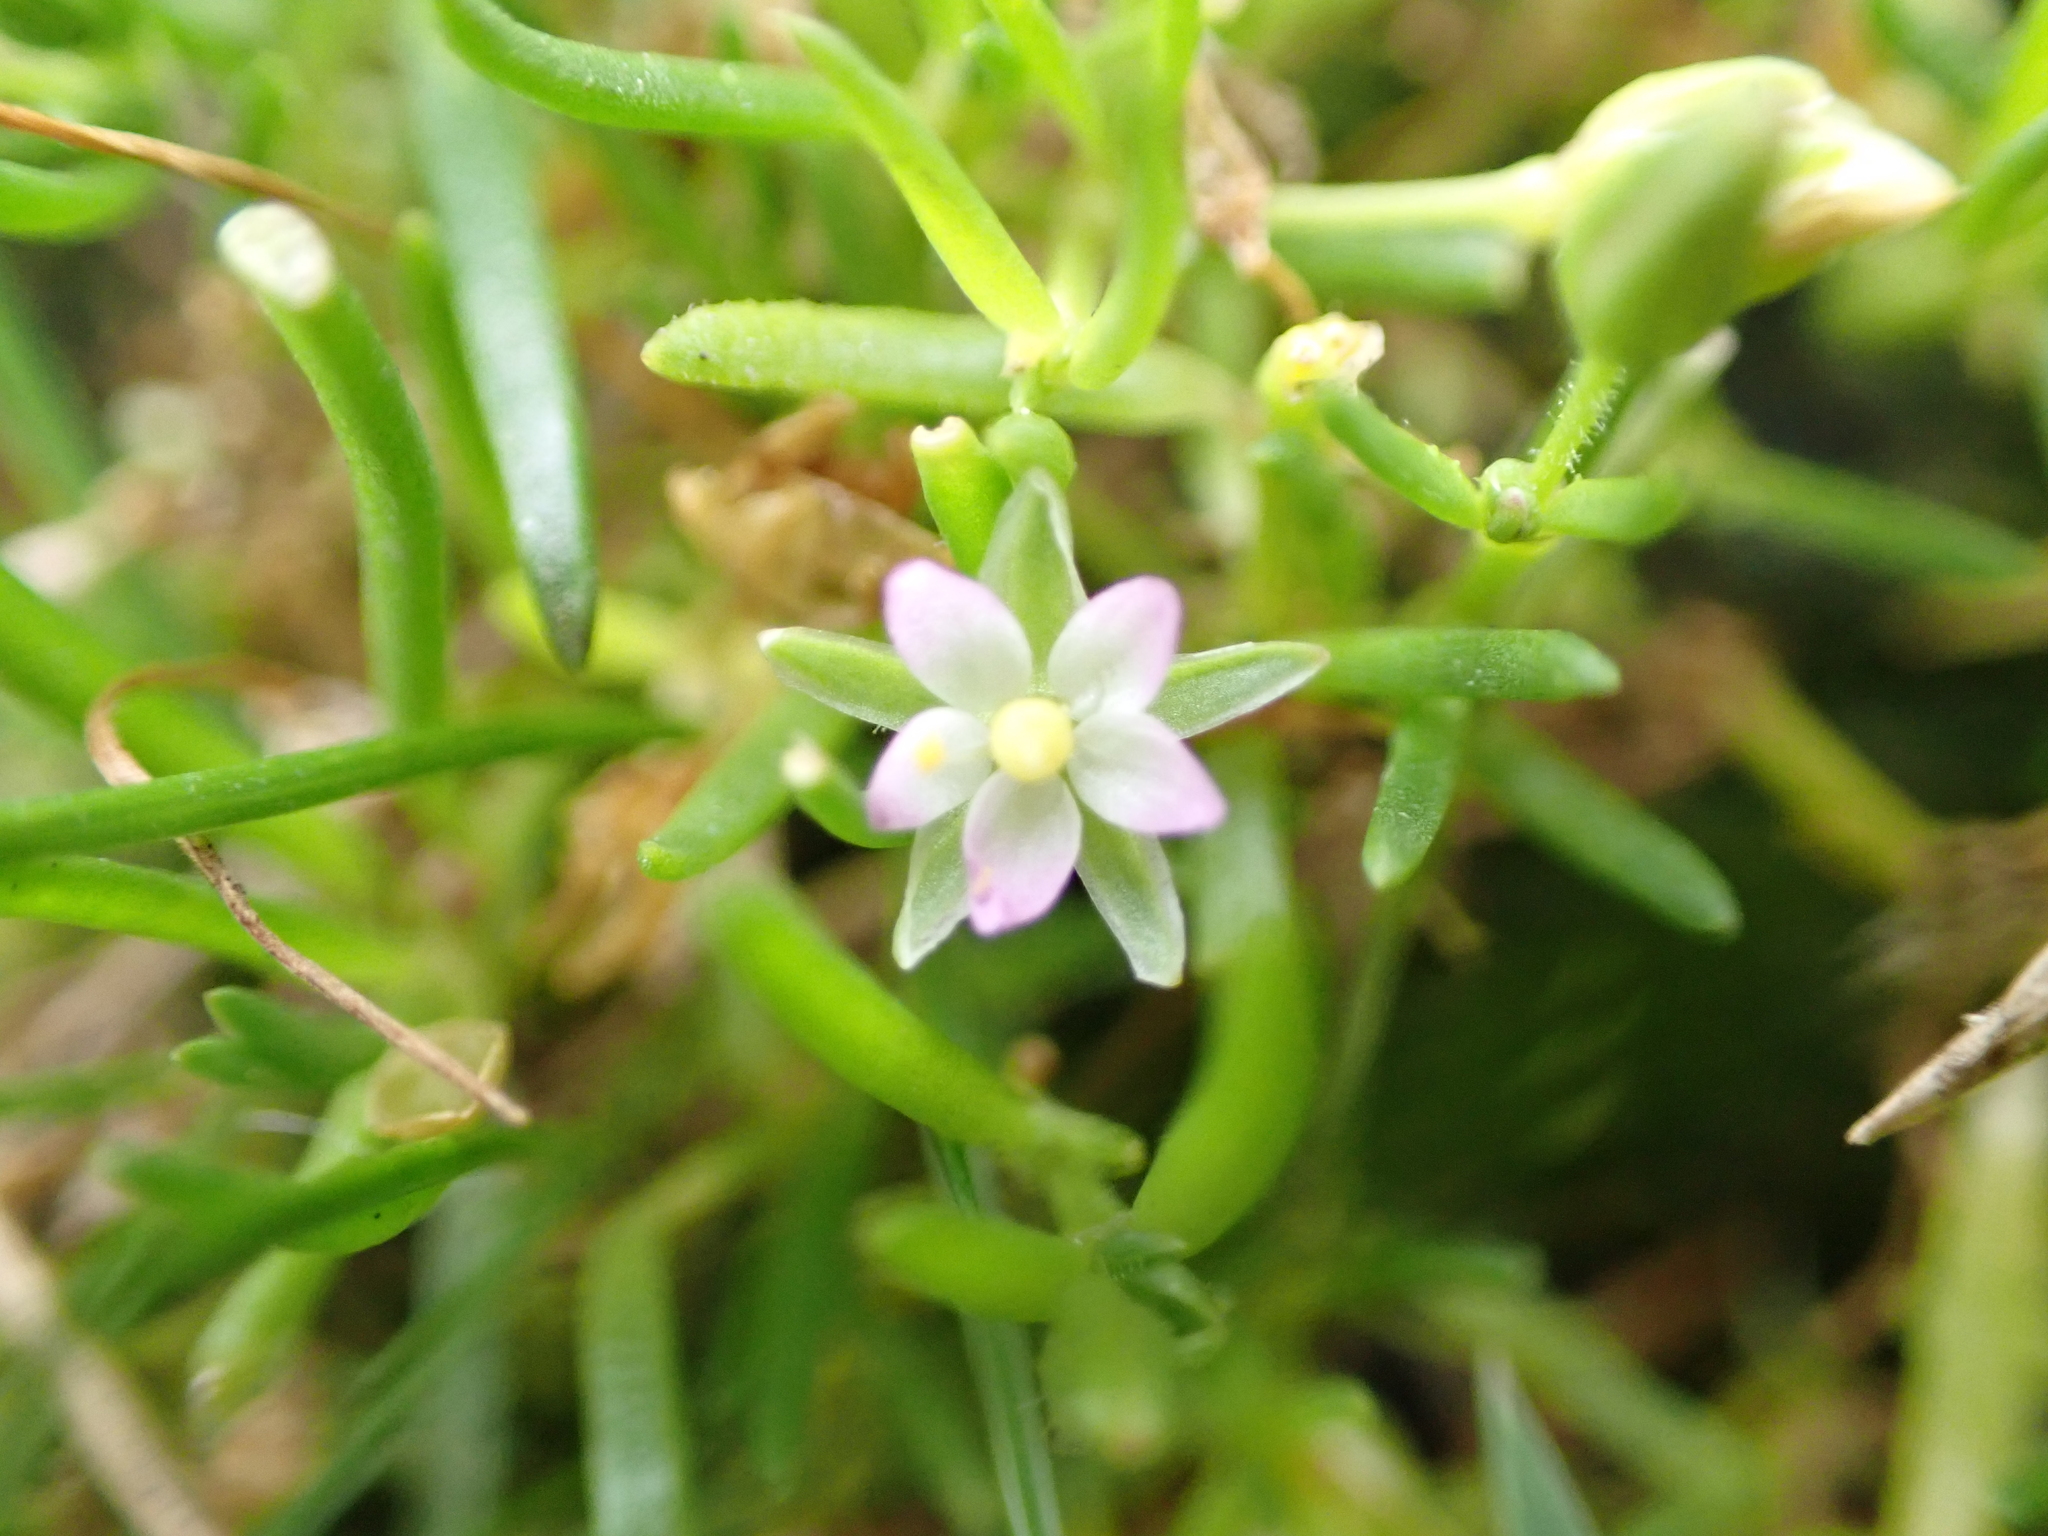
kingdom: Plantae
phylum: Tracheophyta
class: Magnoliopsida
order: Caryophyllales
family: Caryophyllaceae
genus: Spergularia
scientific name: Spergularia marina
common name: Lesser sea-spurrey
